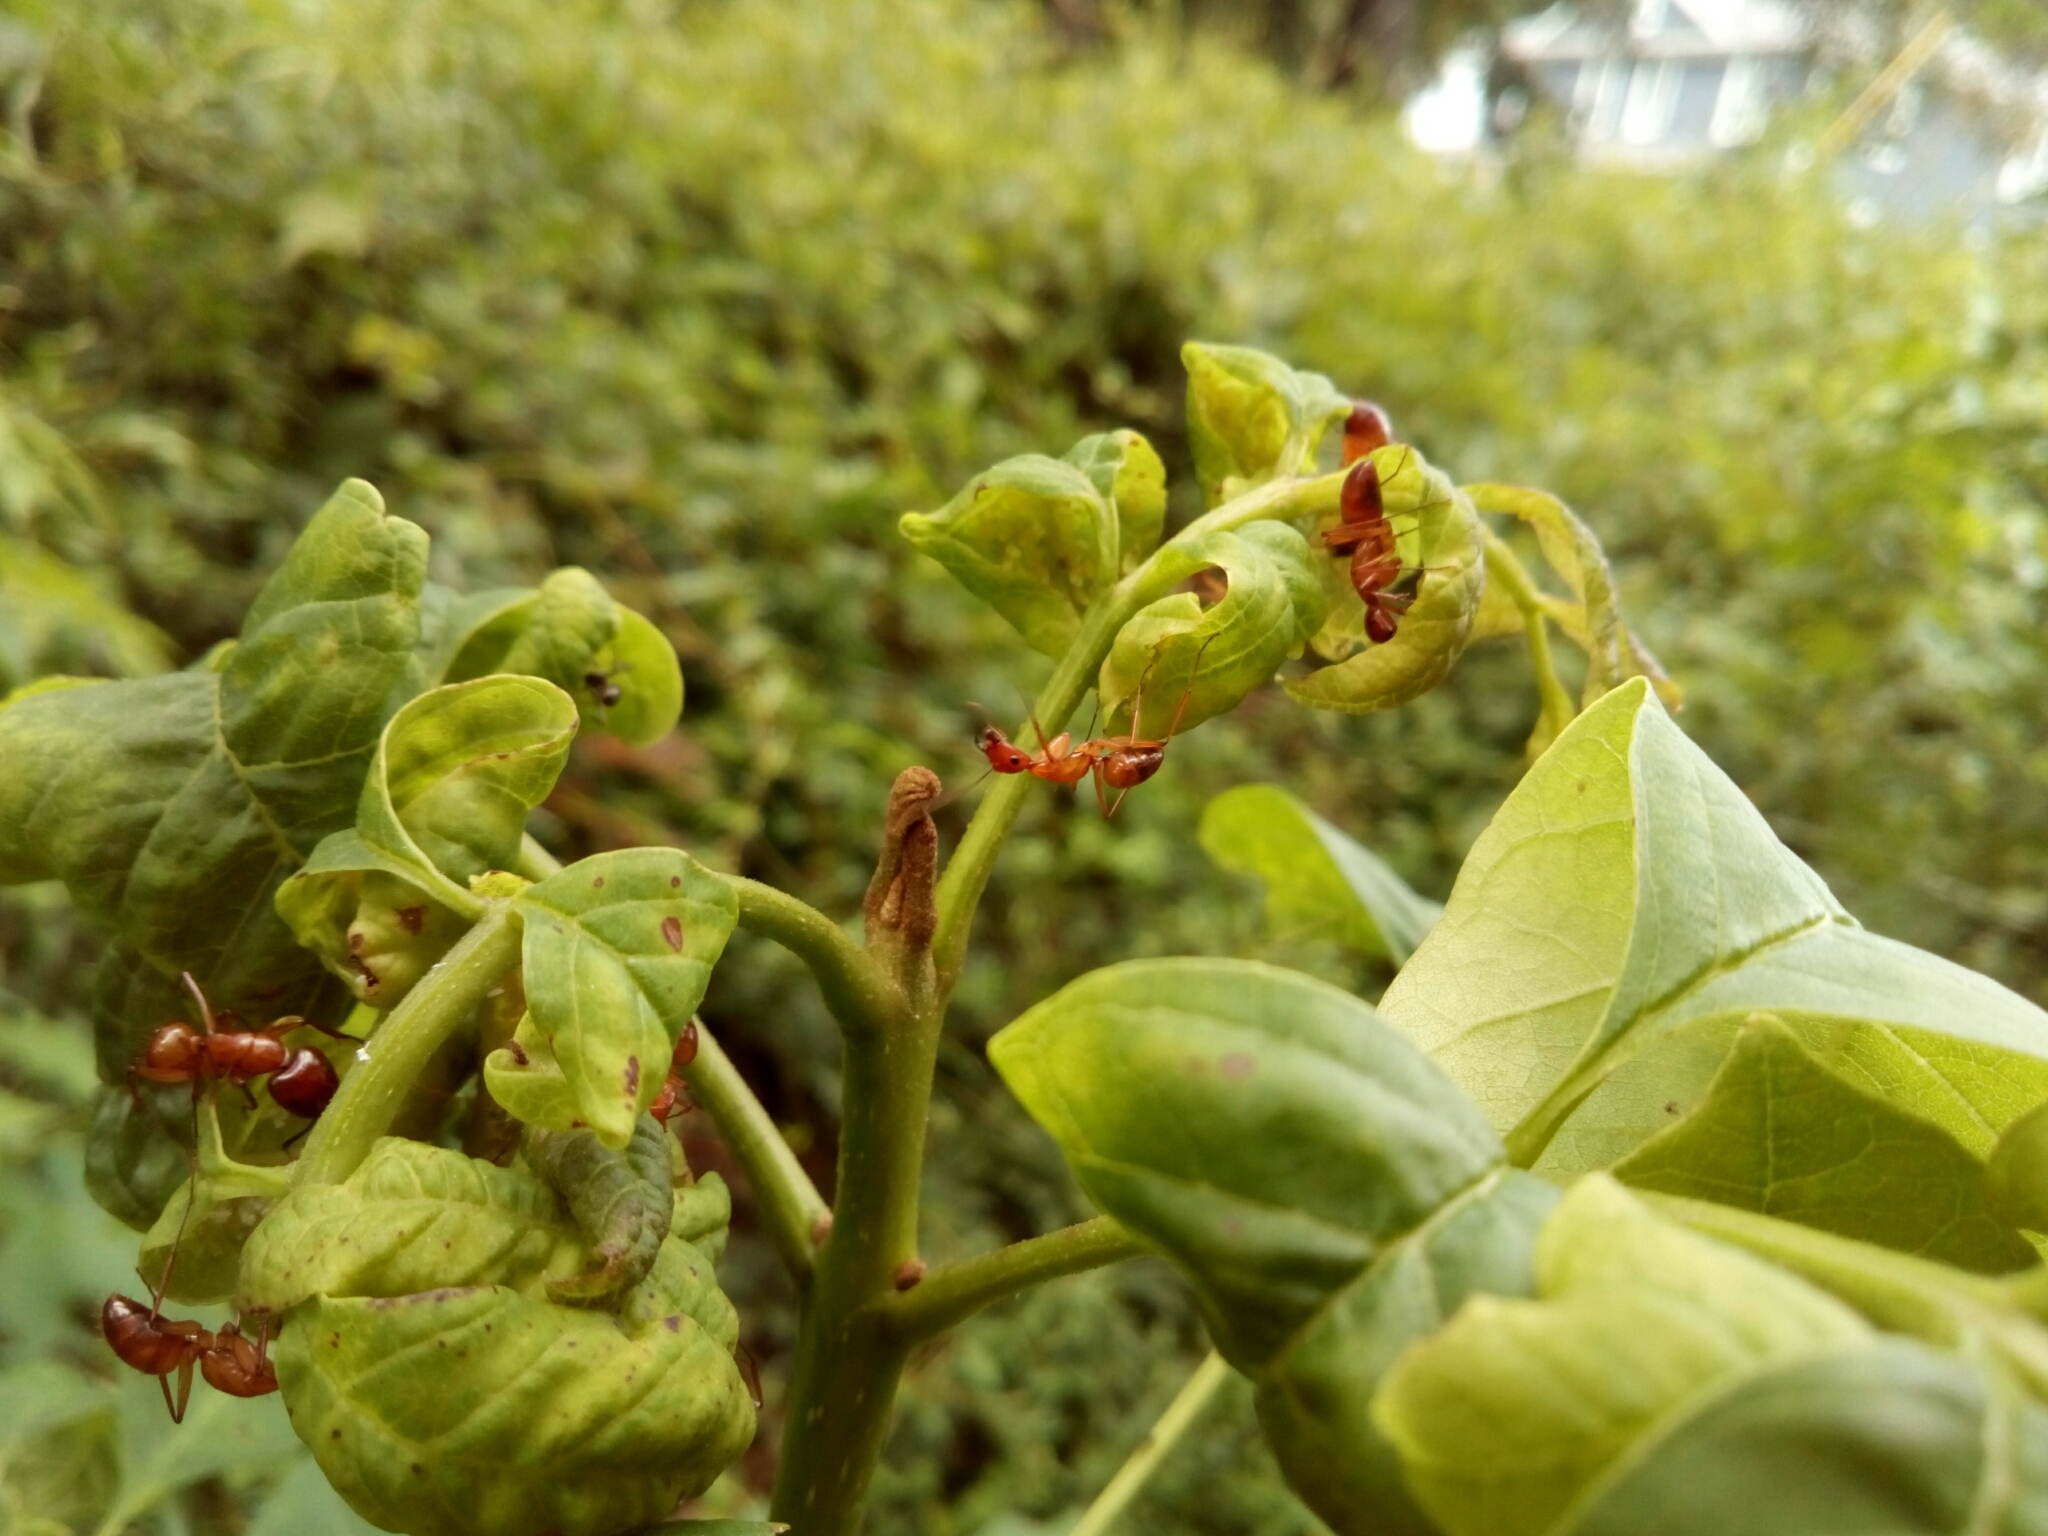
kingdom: Animalia
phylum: Arthropoda
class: Insecta
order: Hymenoptera
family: Formicidae
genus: Camponotus
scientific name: Camponotus castaneus
